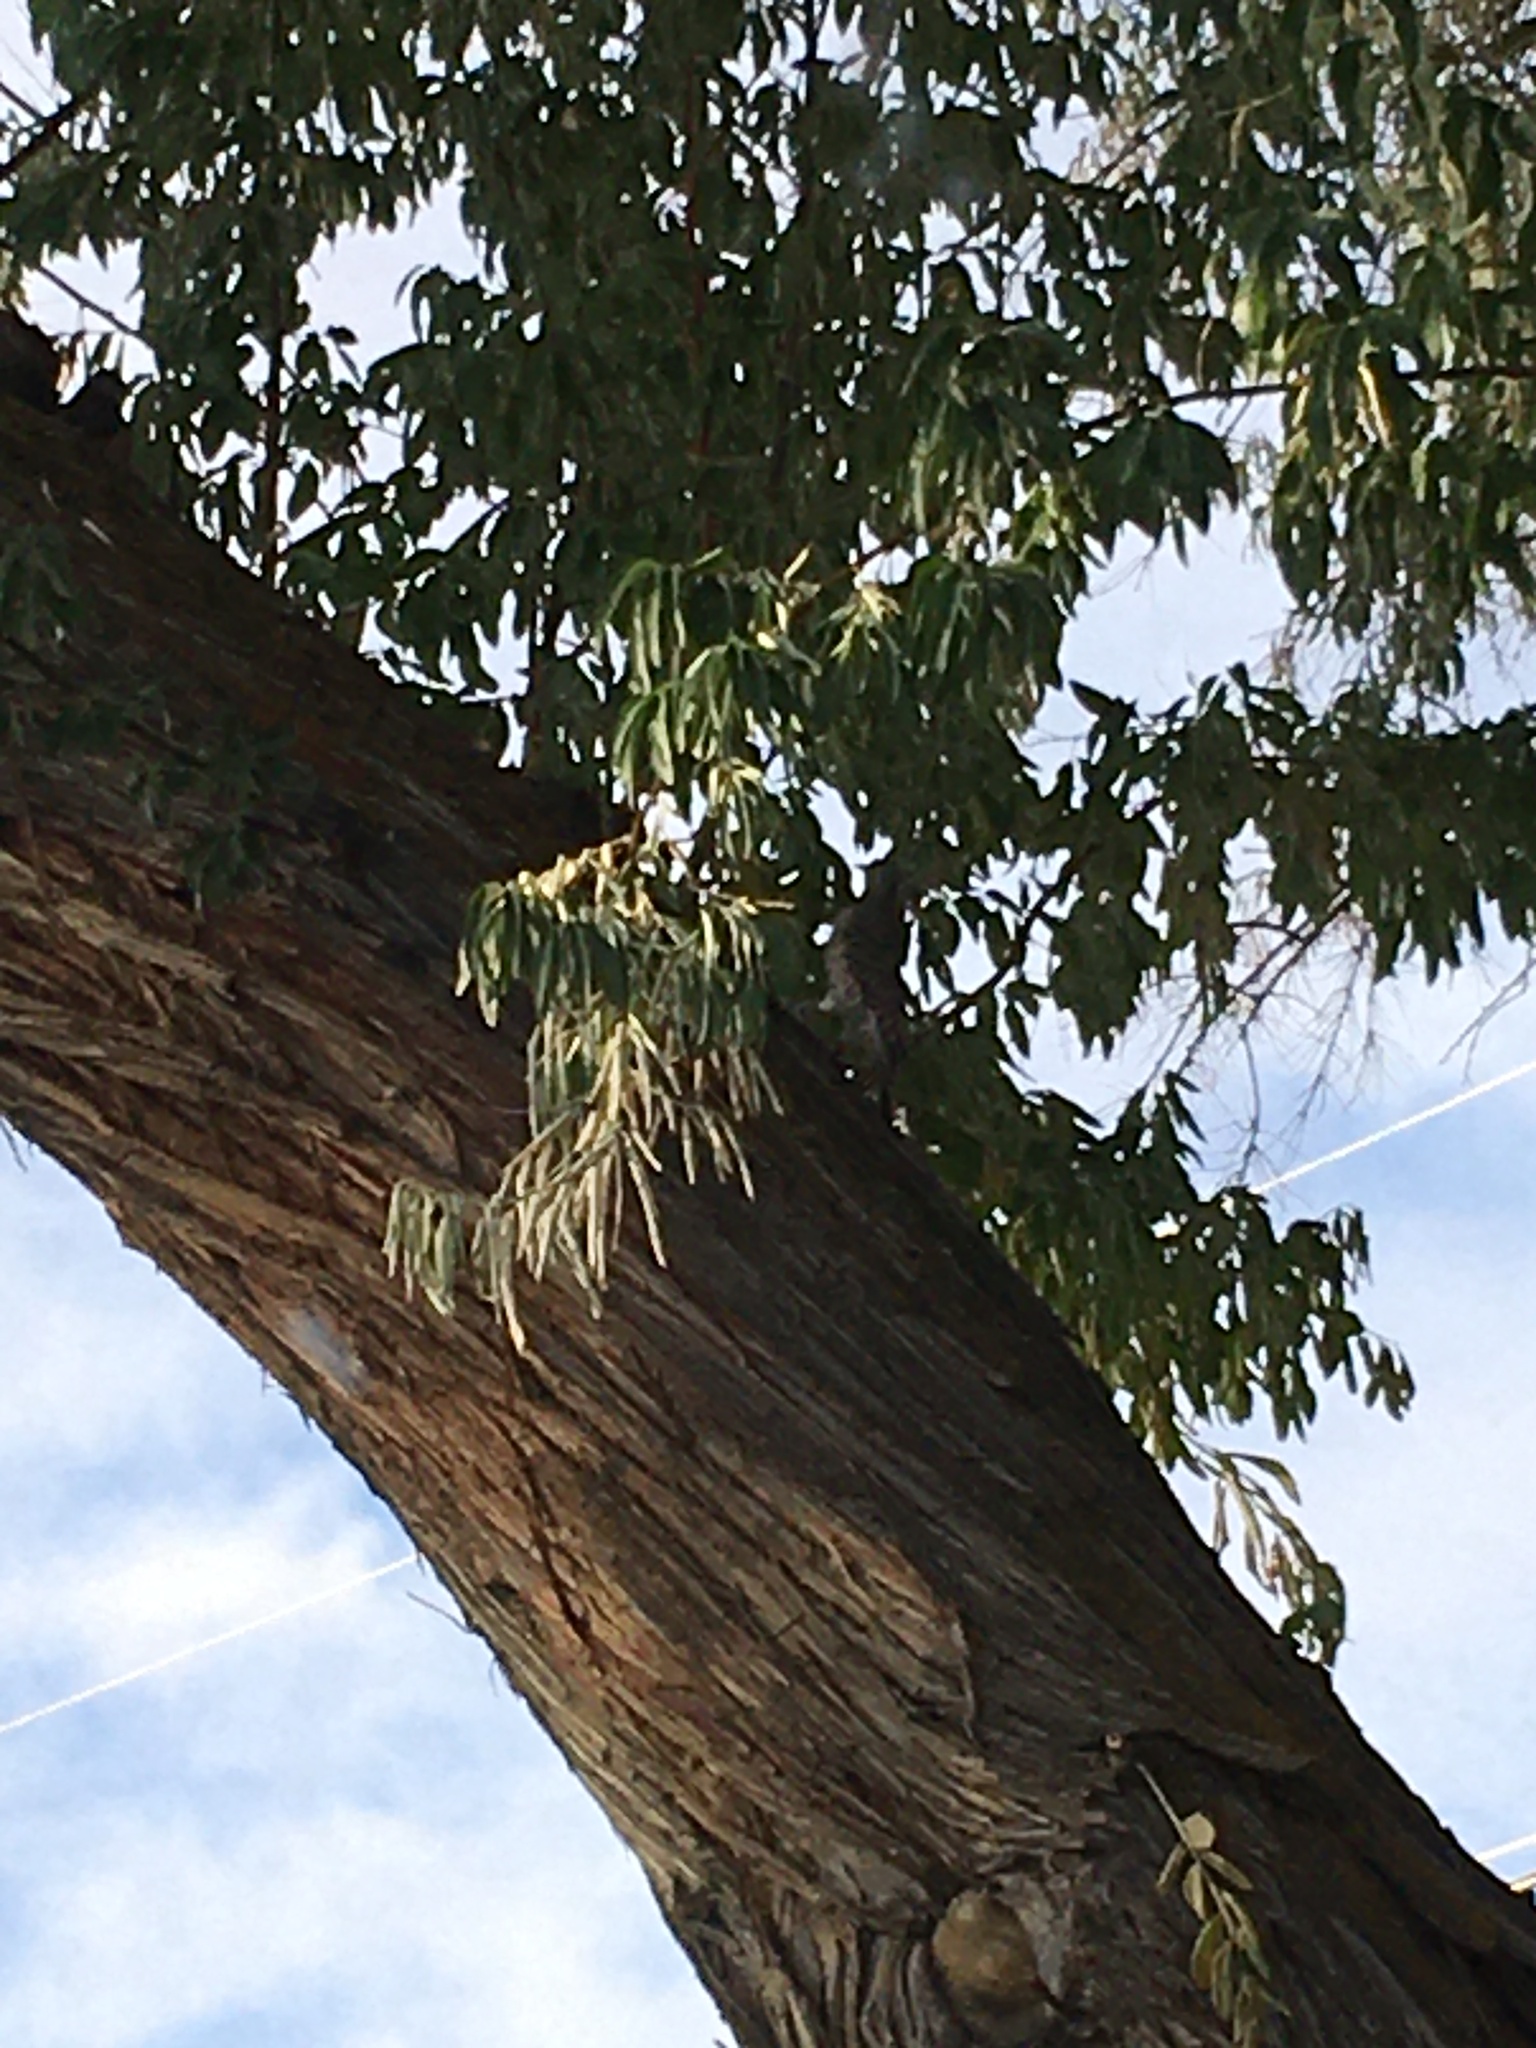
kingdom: Animalia
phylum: Chordata
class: Aves
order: Piciformes
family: Picidae
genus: Colaptes
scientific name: Colaptes auratus
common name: Northern flicker
